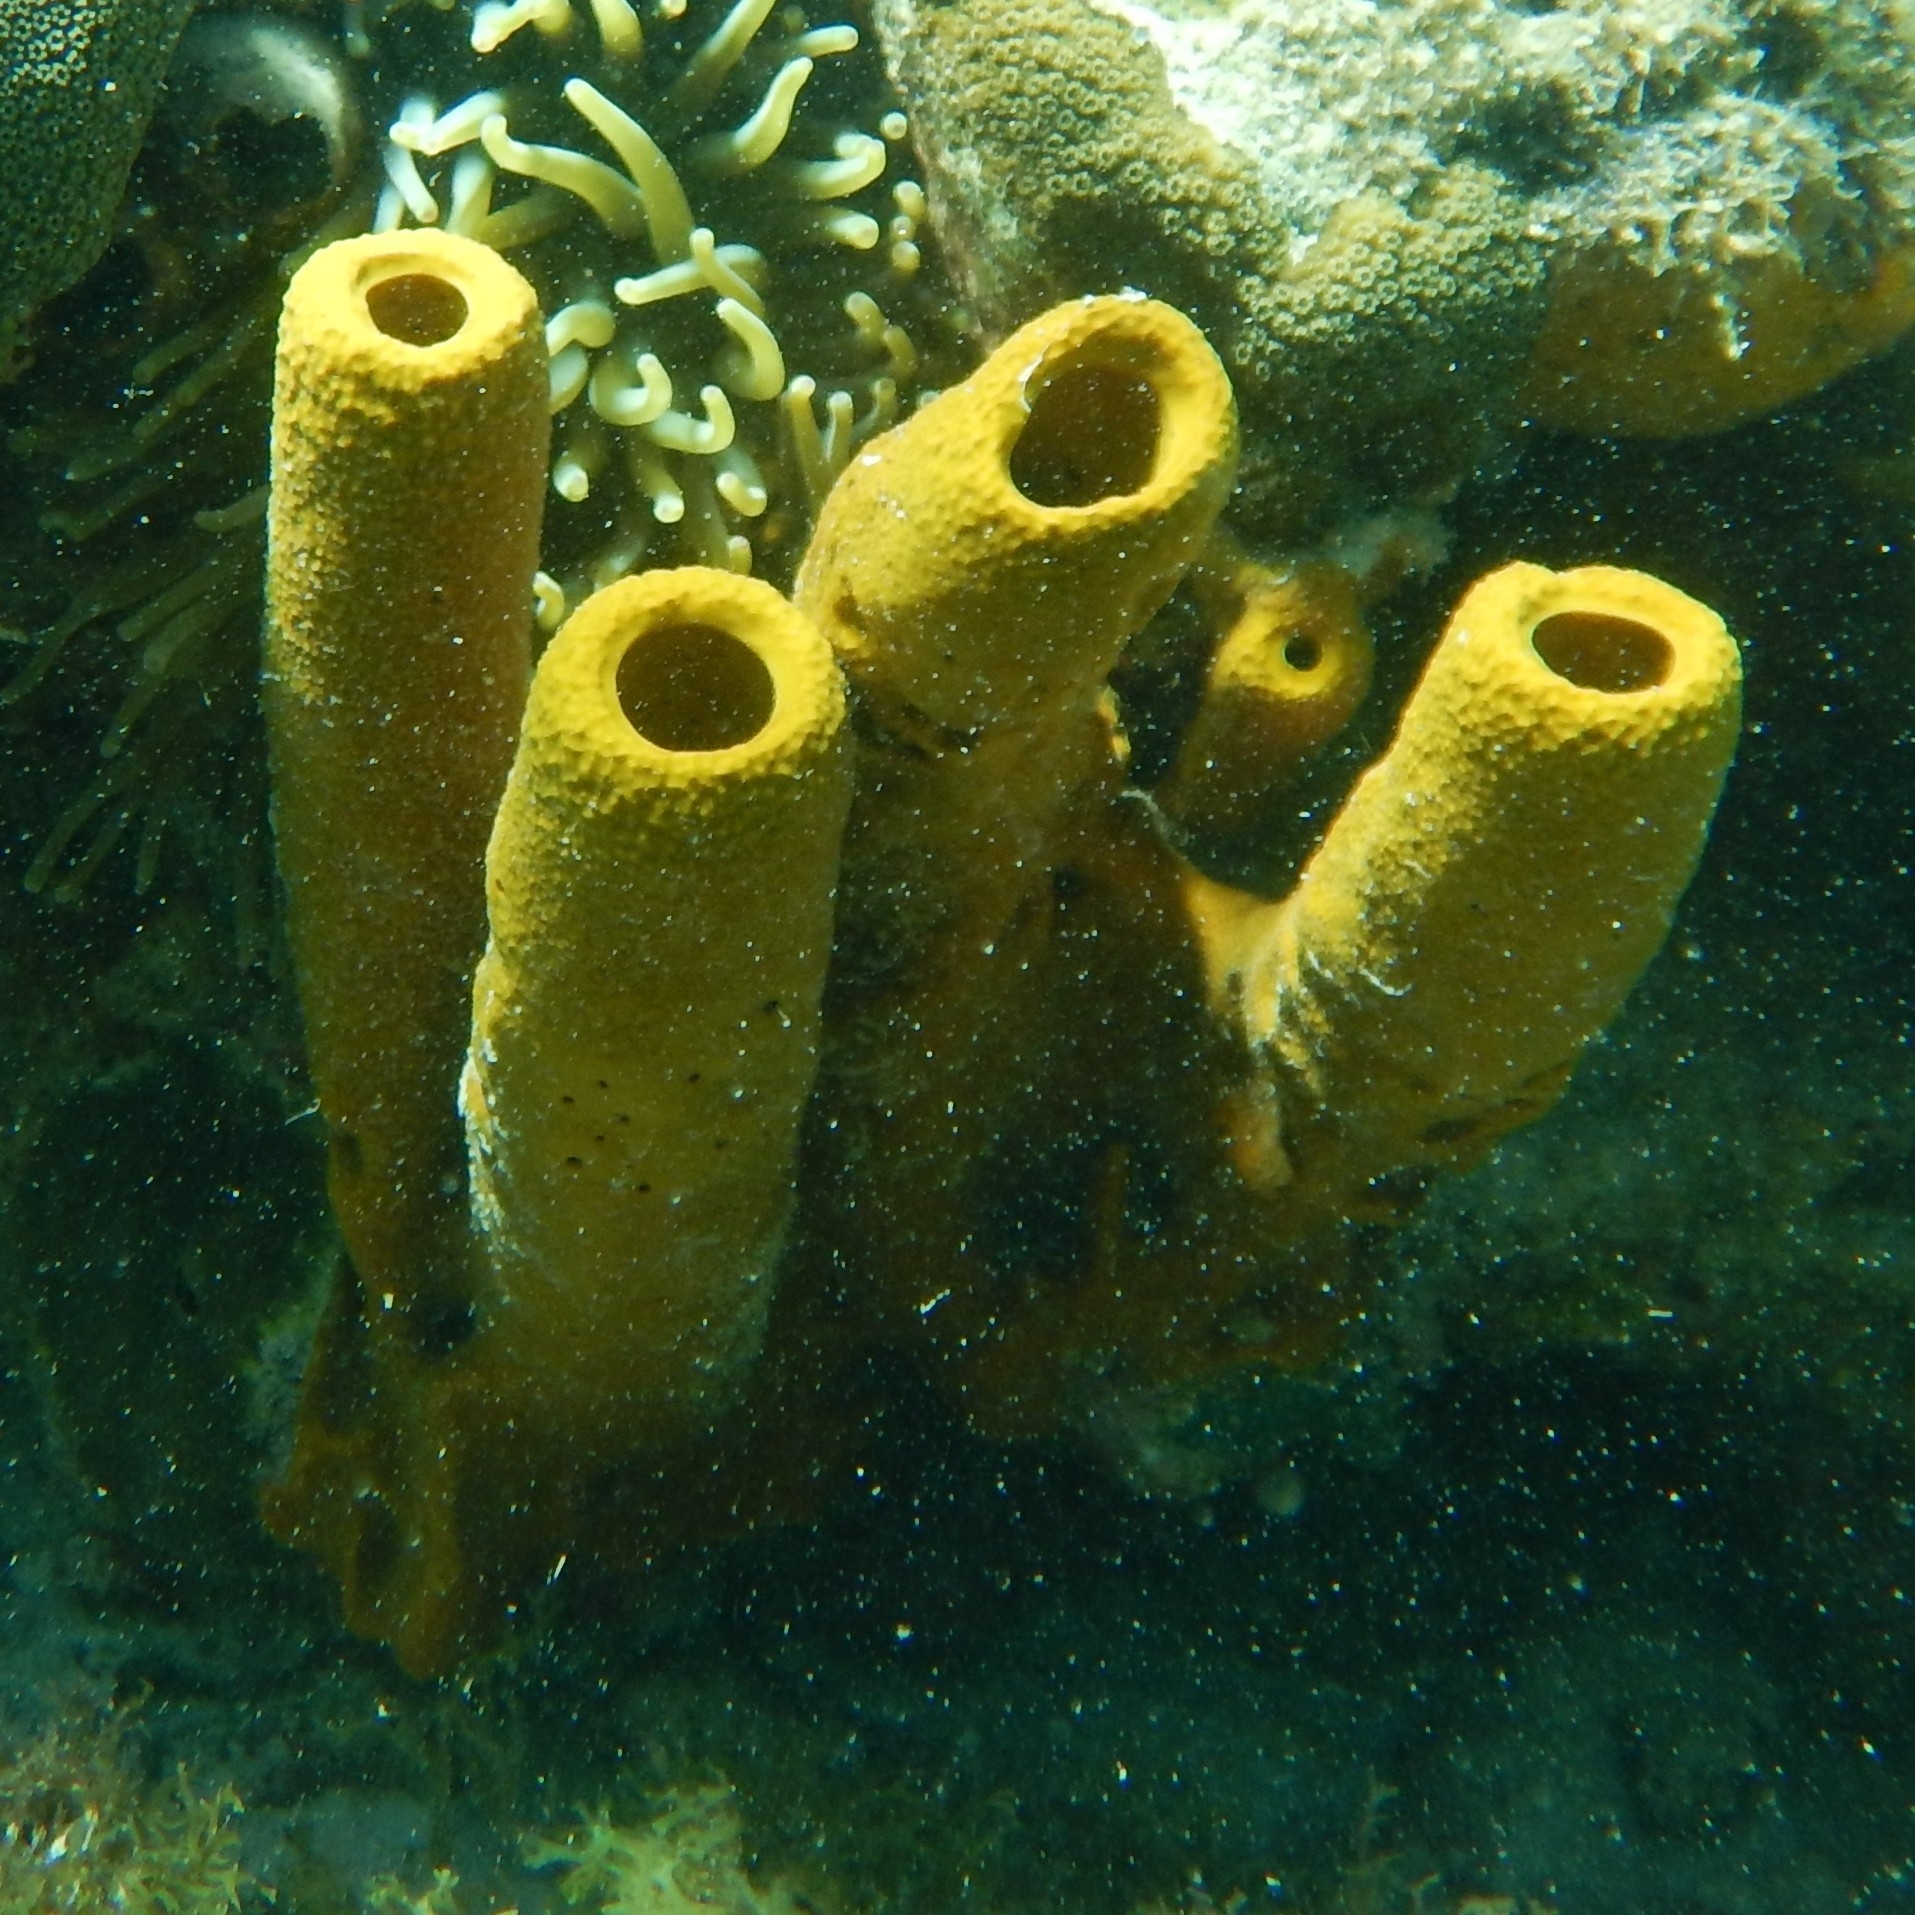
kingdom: Animalia
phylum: Porifera
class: Demospongiae
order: Verongiida
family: Aplysinidae
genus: Aplysina
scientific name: Aplysina fistularis
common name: Candle sponge
